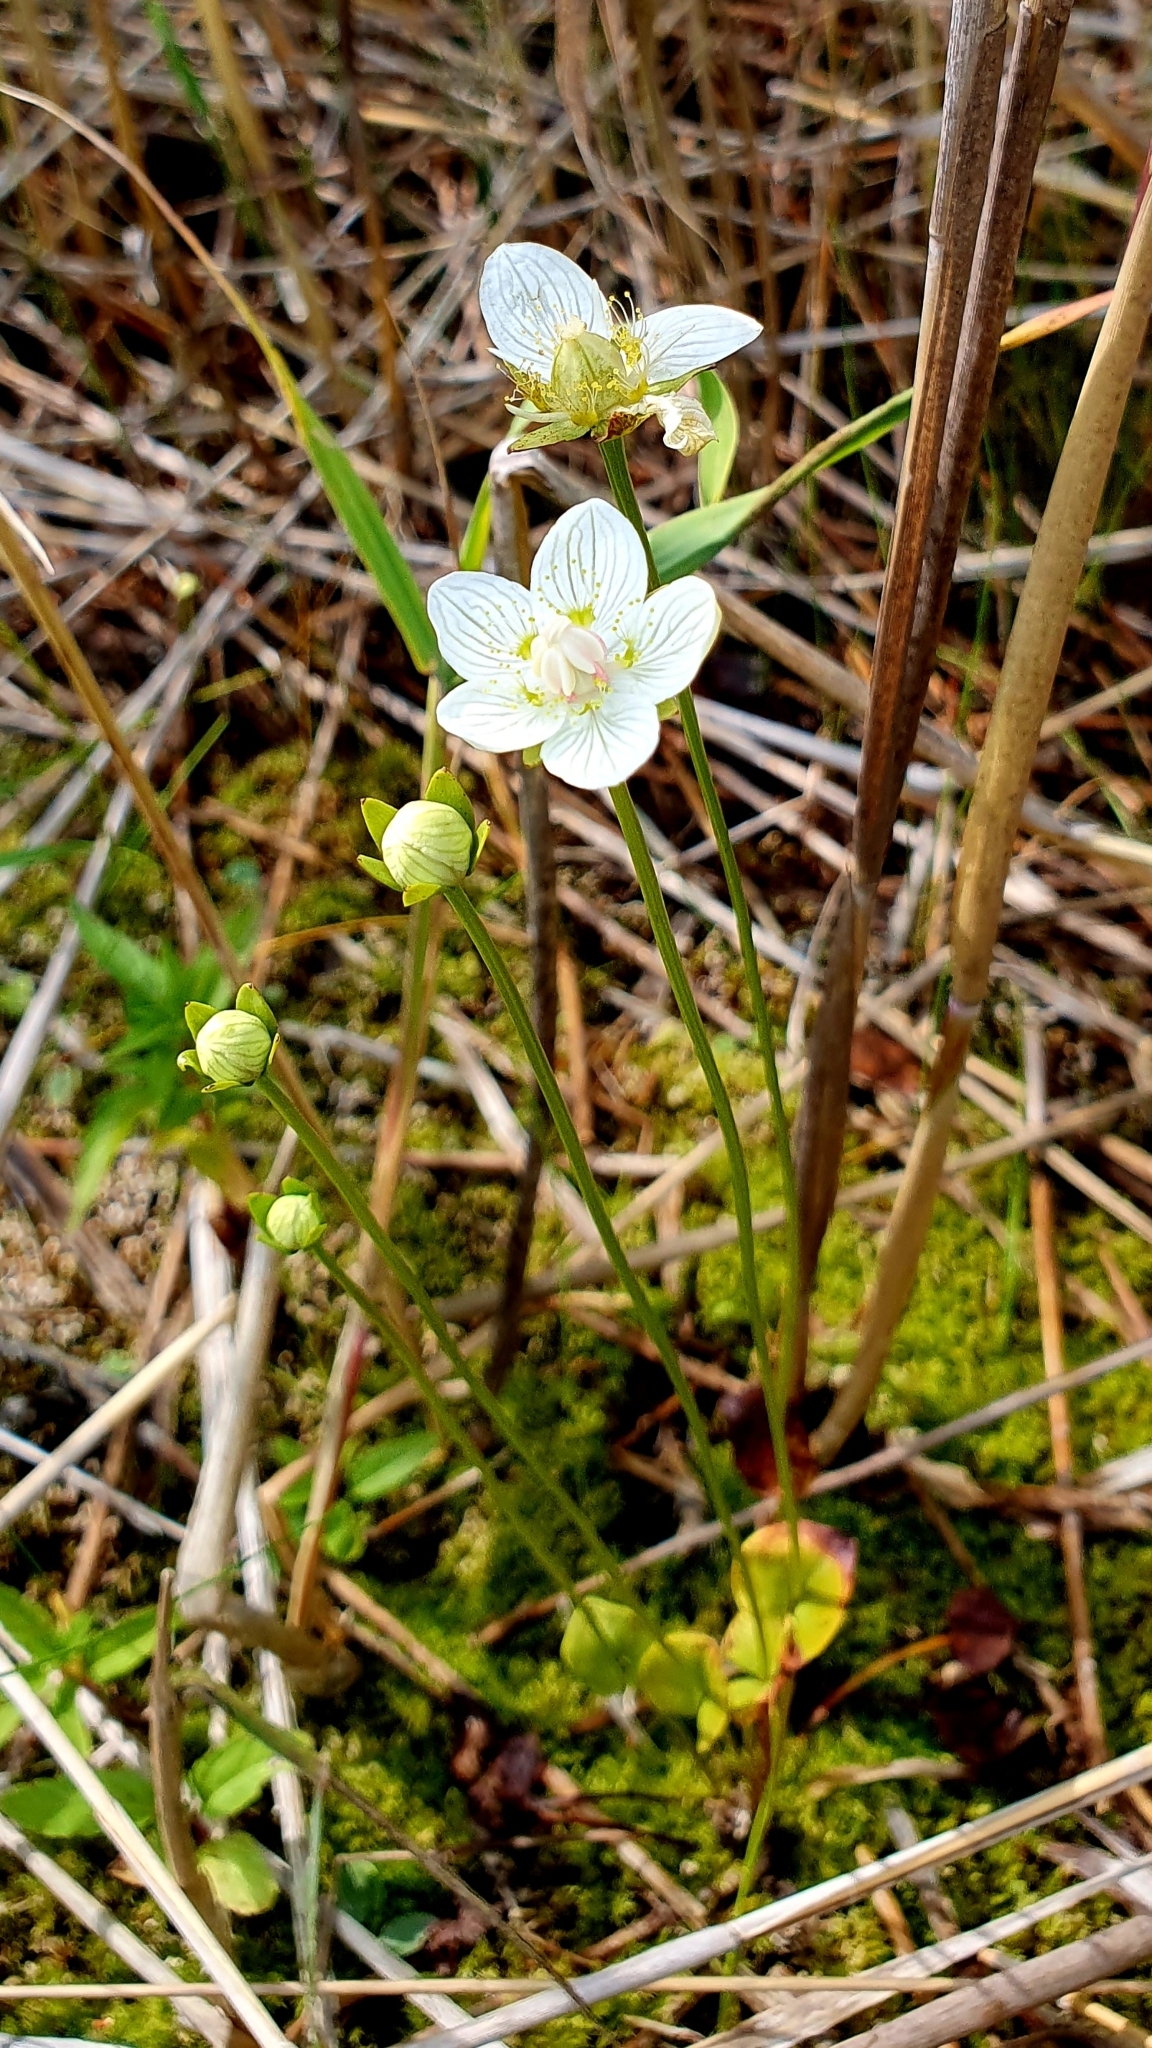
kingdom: Plantae
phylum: Tracheophyta
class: Magnoliopsida
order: Celastrales
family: Parnassiaceae
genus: Parnassia
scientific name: Parnassia palustris
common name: Grass-of-parnassus
